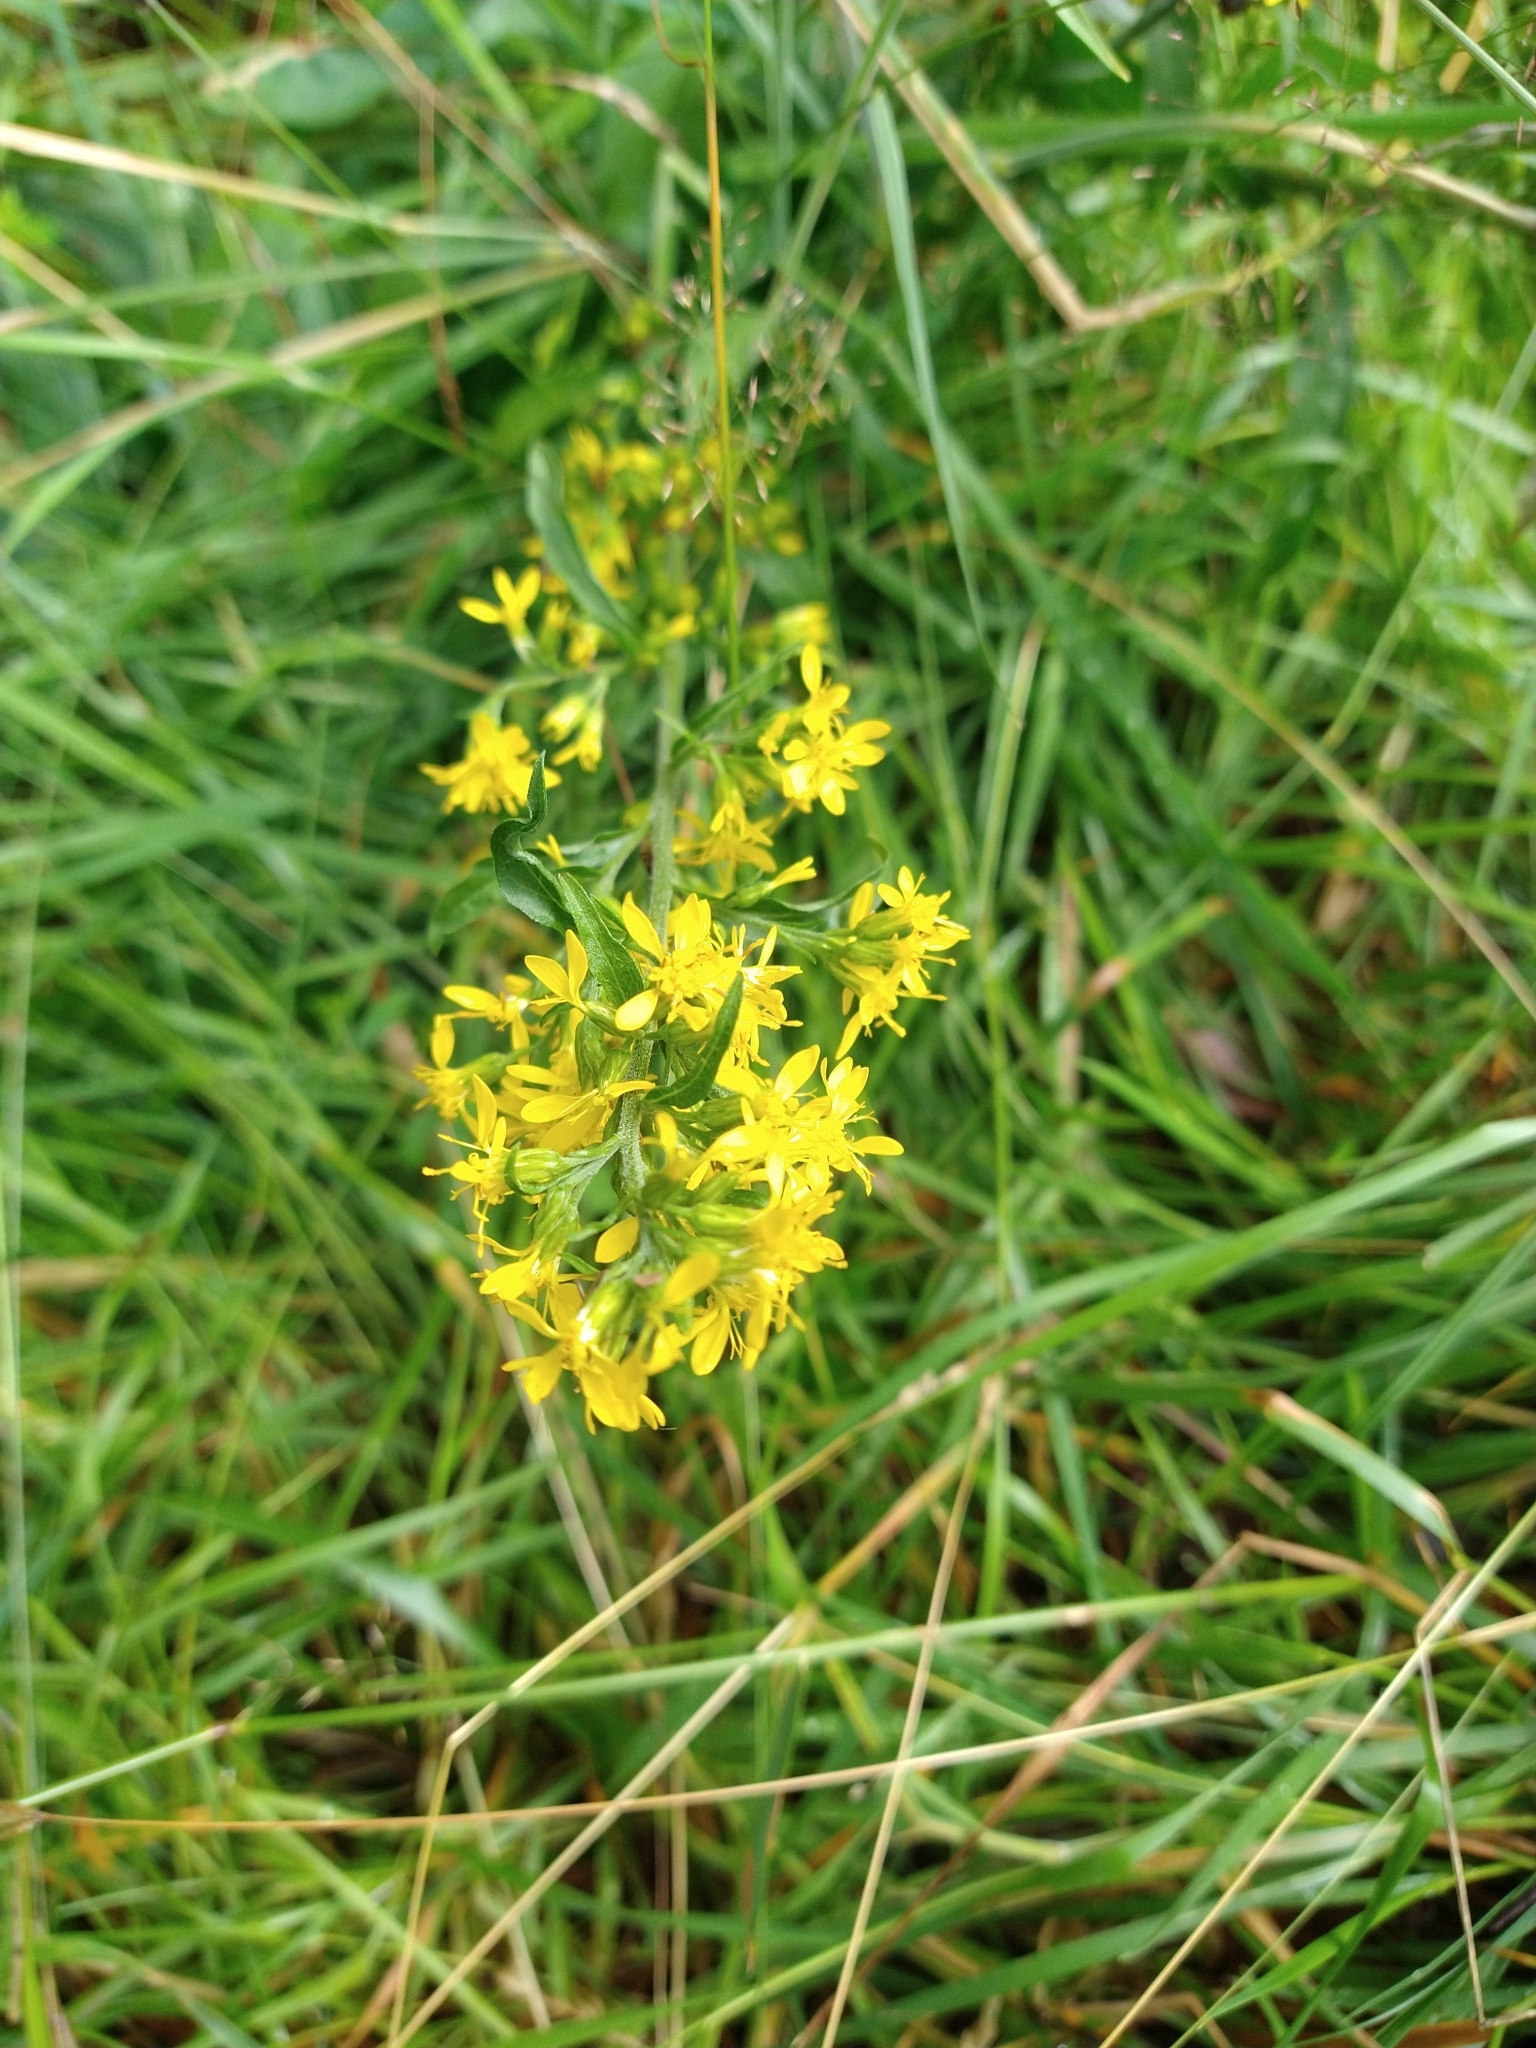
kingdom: Plantae
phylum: Tracheophyta
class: Magnoliopsida
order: Asterales
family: Asteraceae
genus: Solidago
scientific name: Solidago virgaurea
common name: Goldenrod
